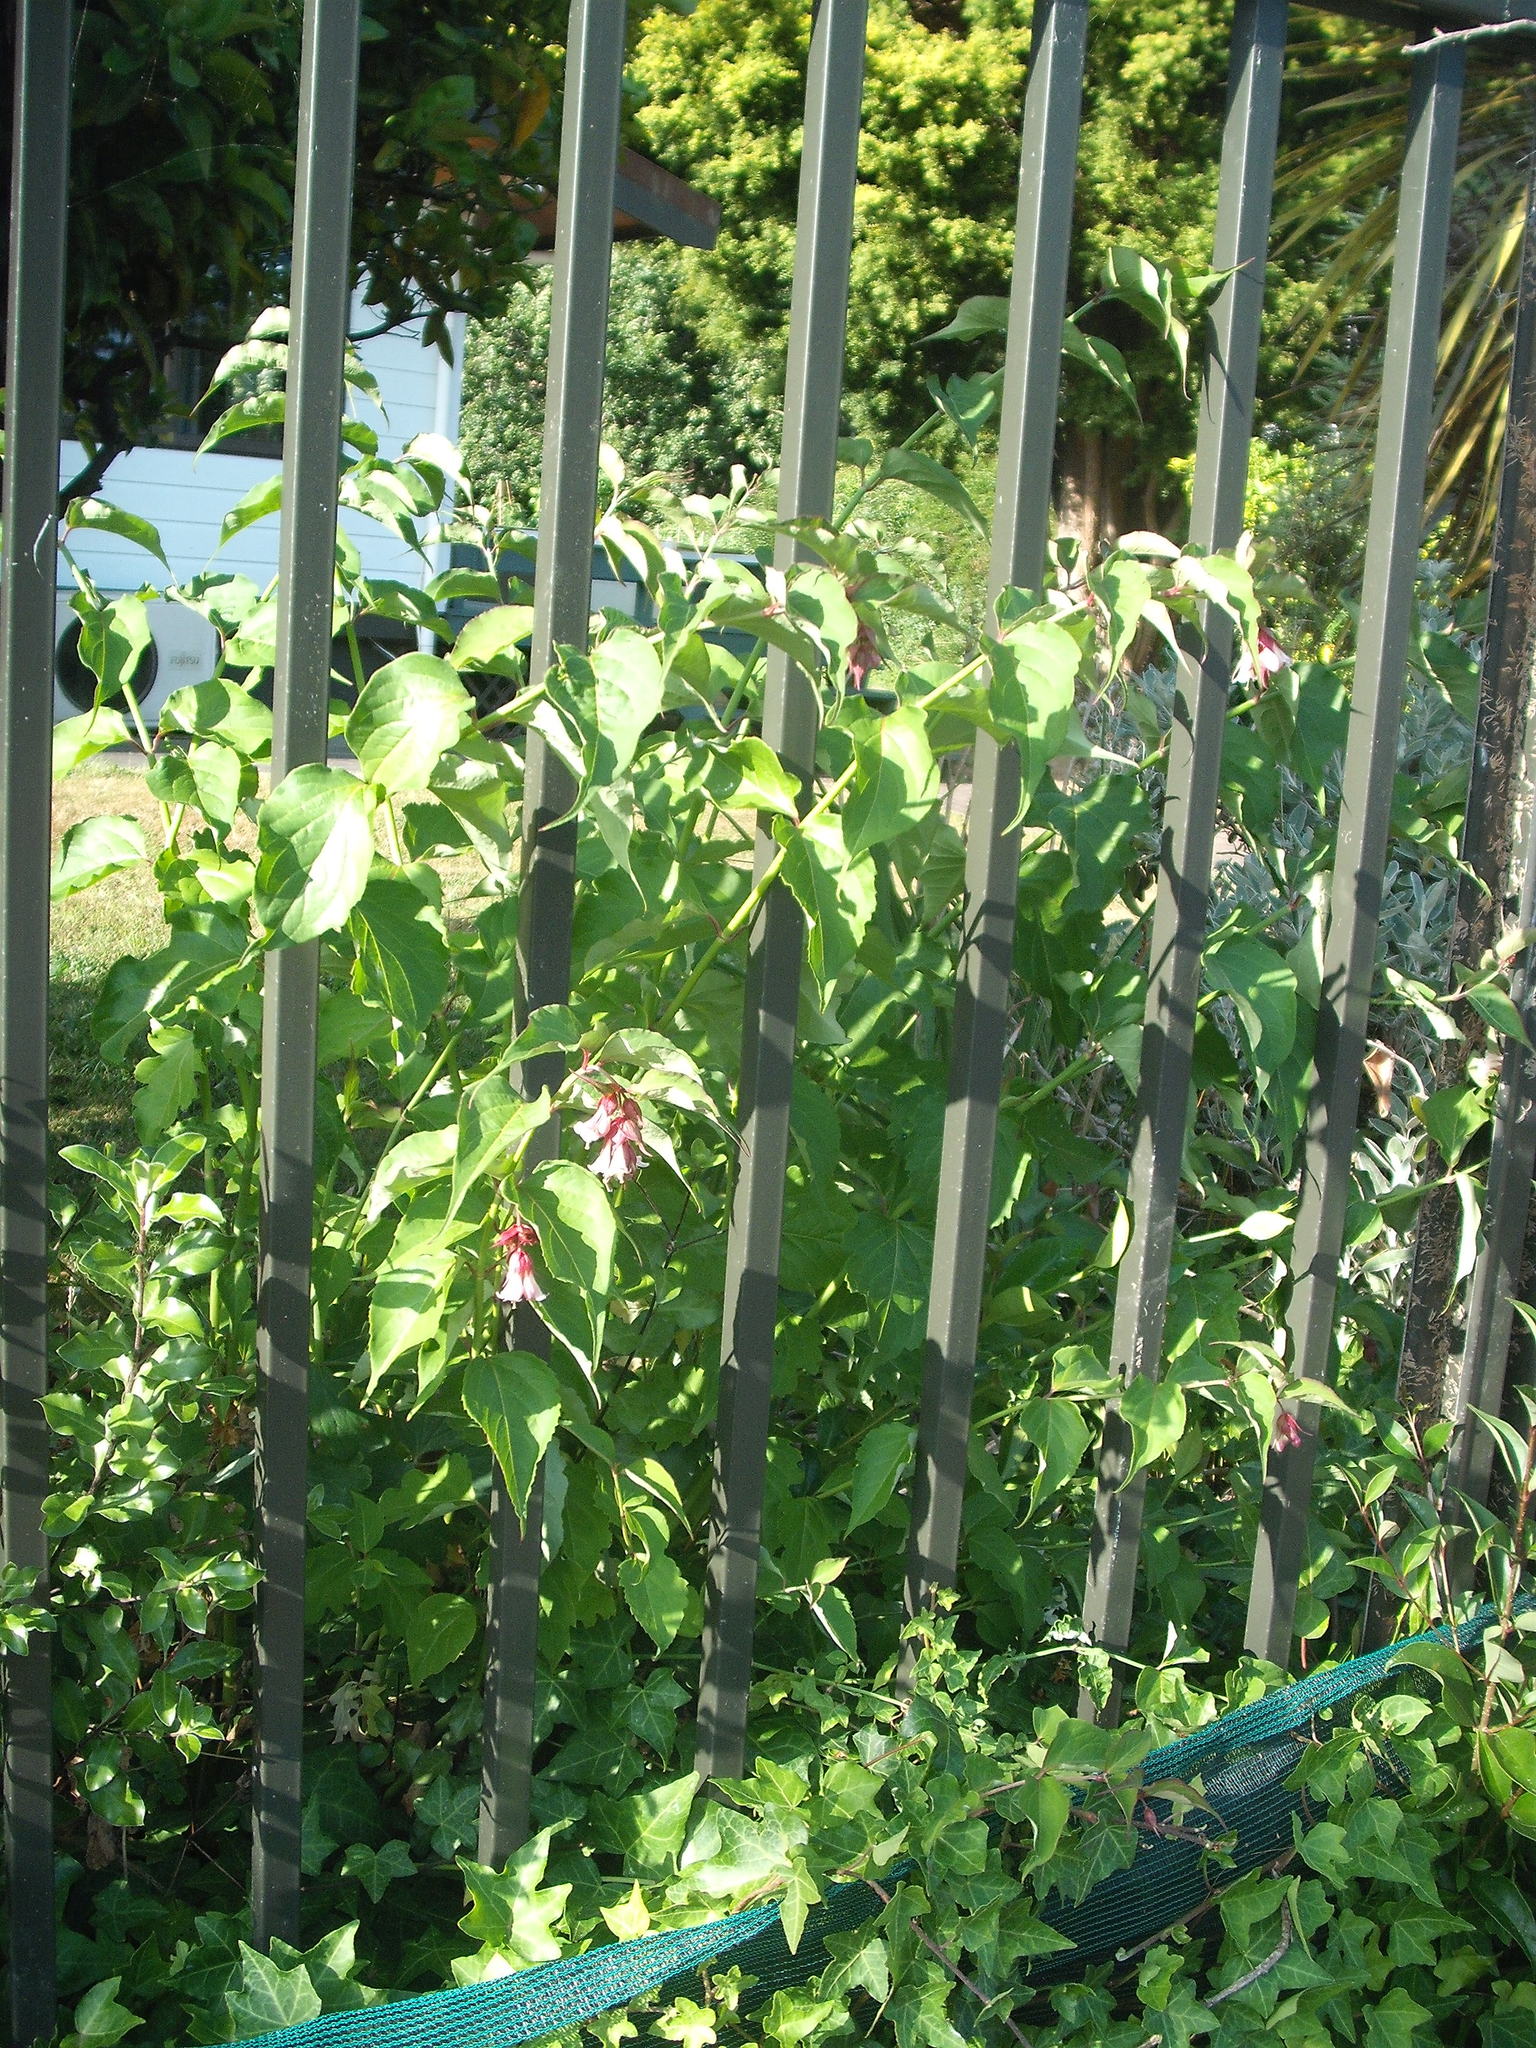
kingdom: Plantae
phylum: Tracheophyta
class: Magnoliopsida
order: Dipsacales
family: Caprifoliaceae
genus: Leycesteria
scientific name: Leycesteria formosa
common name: Himalayan honeysuckle
